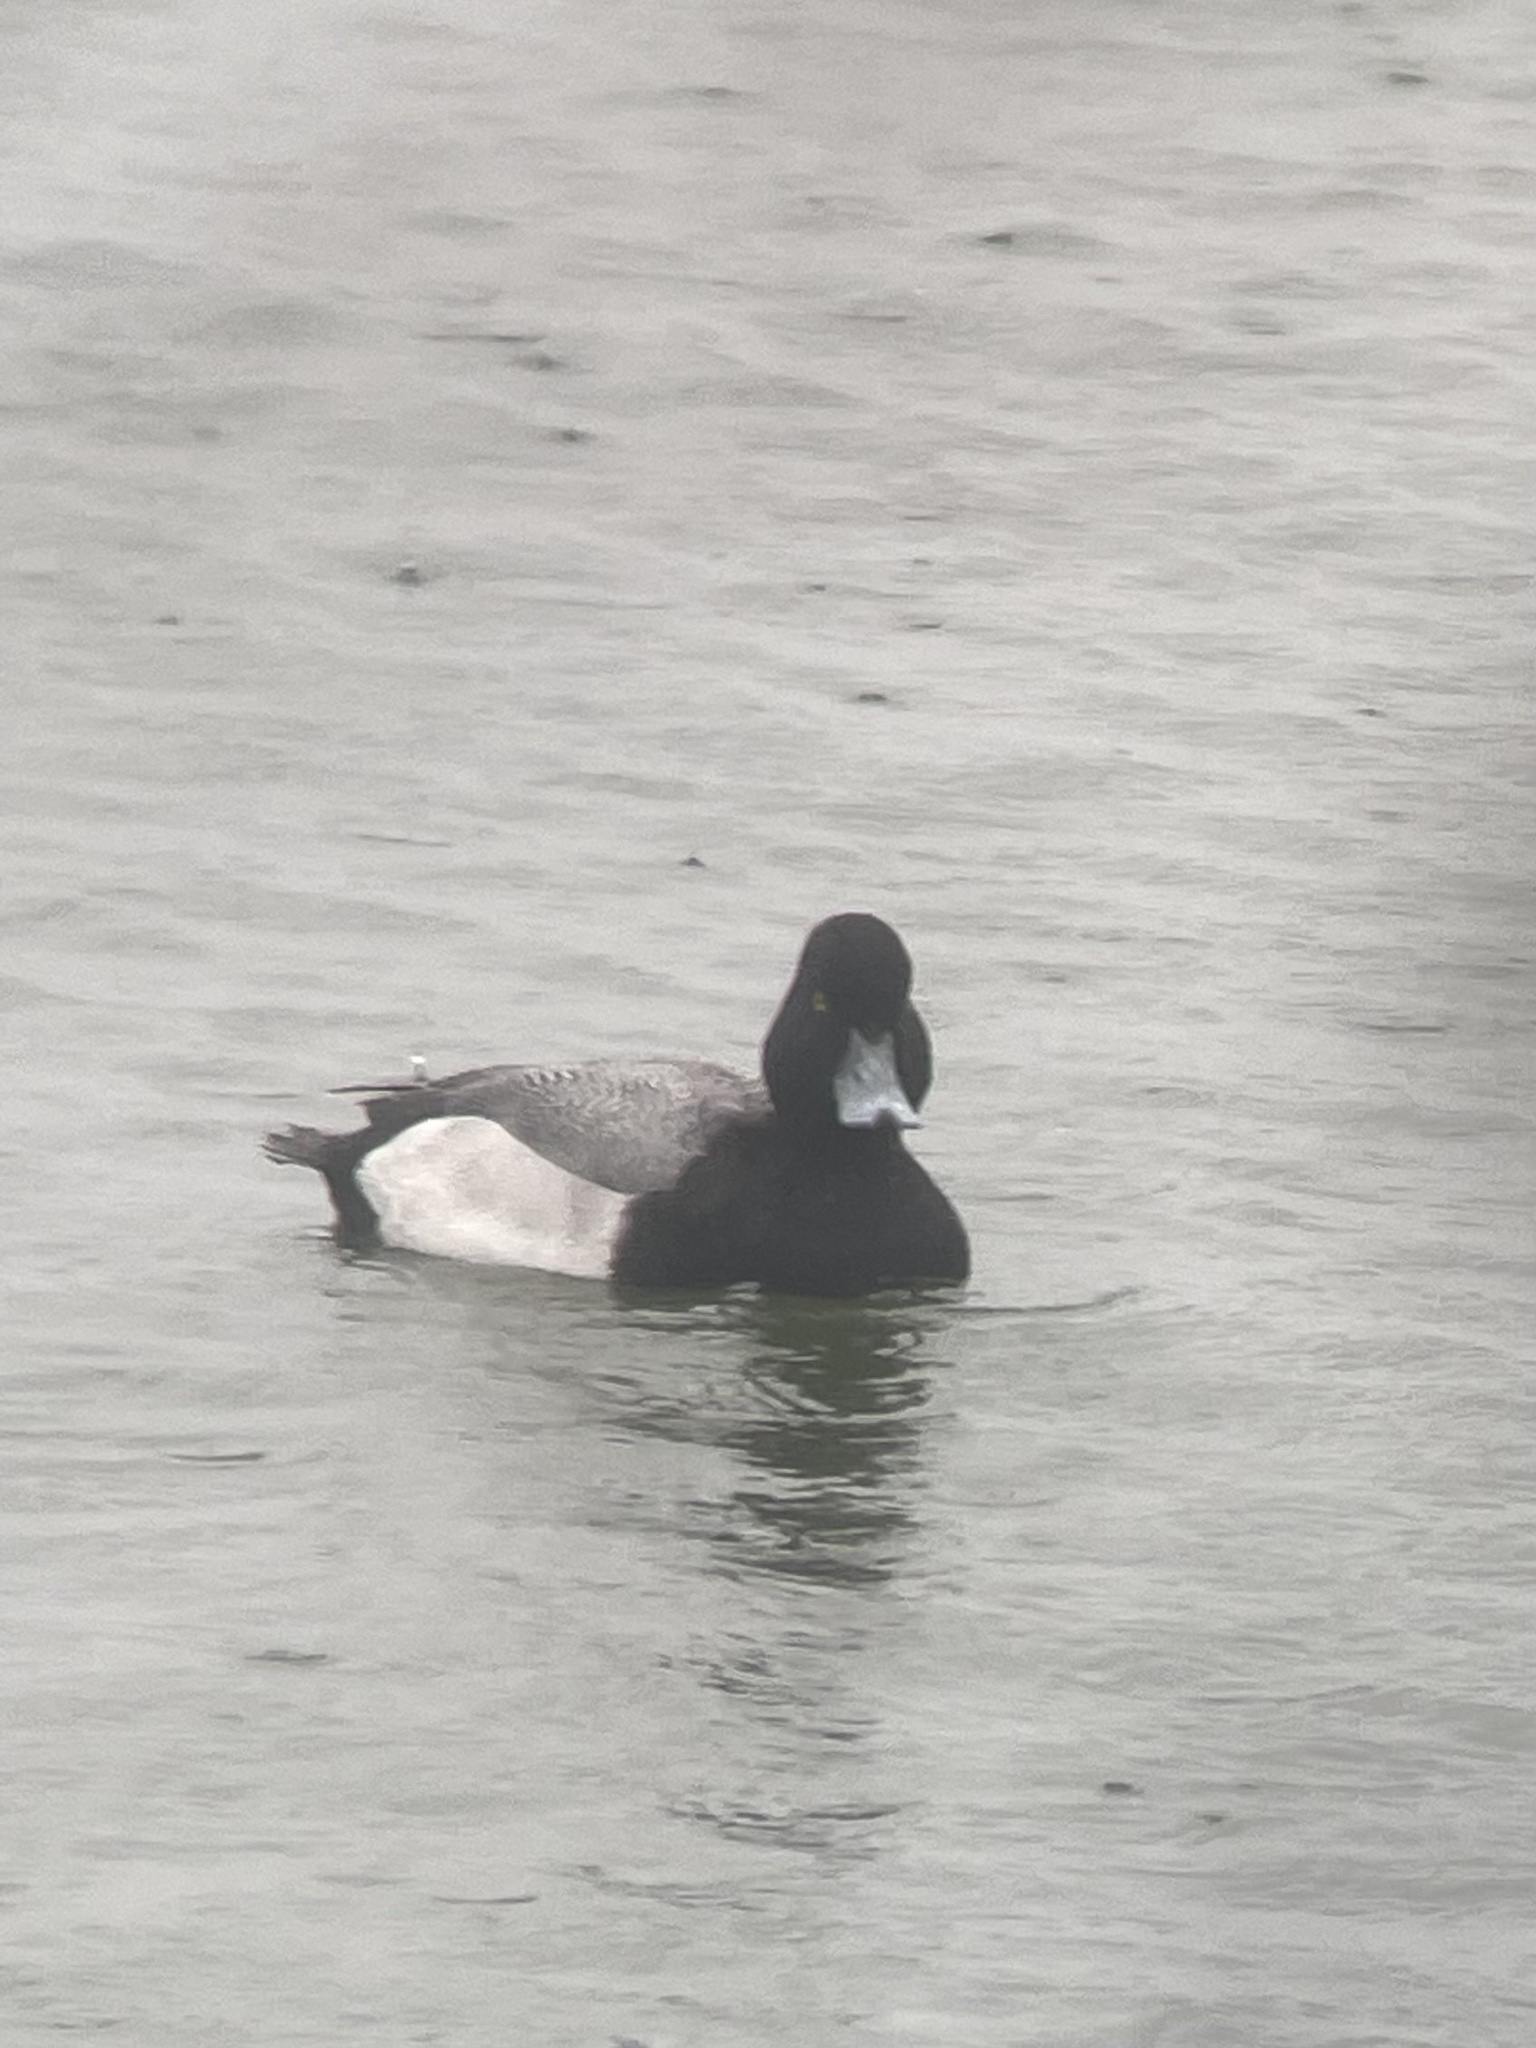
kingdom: Animalia
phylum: Chordata
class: Aves
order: Anseriformes
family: Anatidae
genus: Aythya
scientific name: Aythya affinis
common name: Lesser scaup
